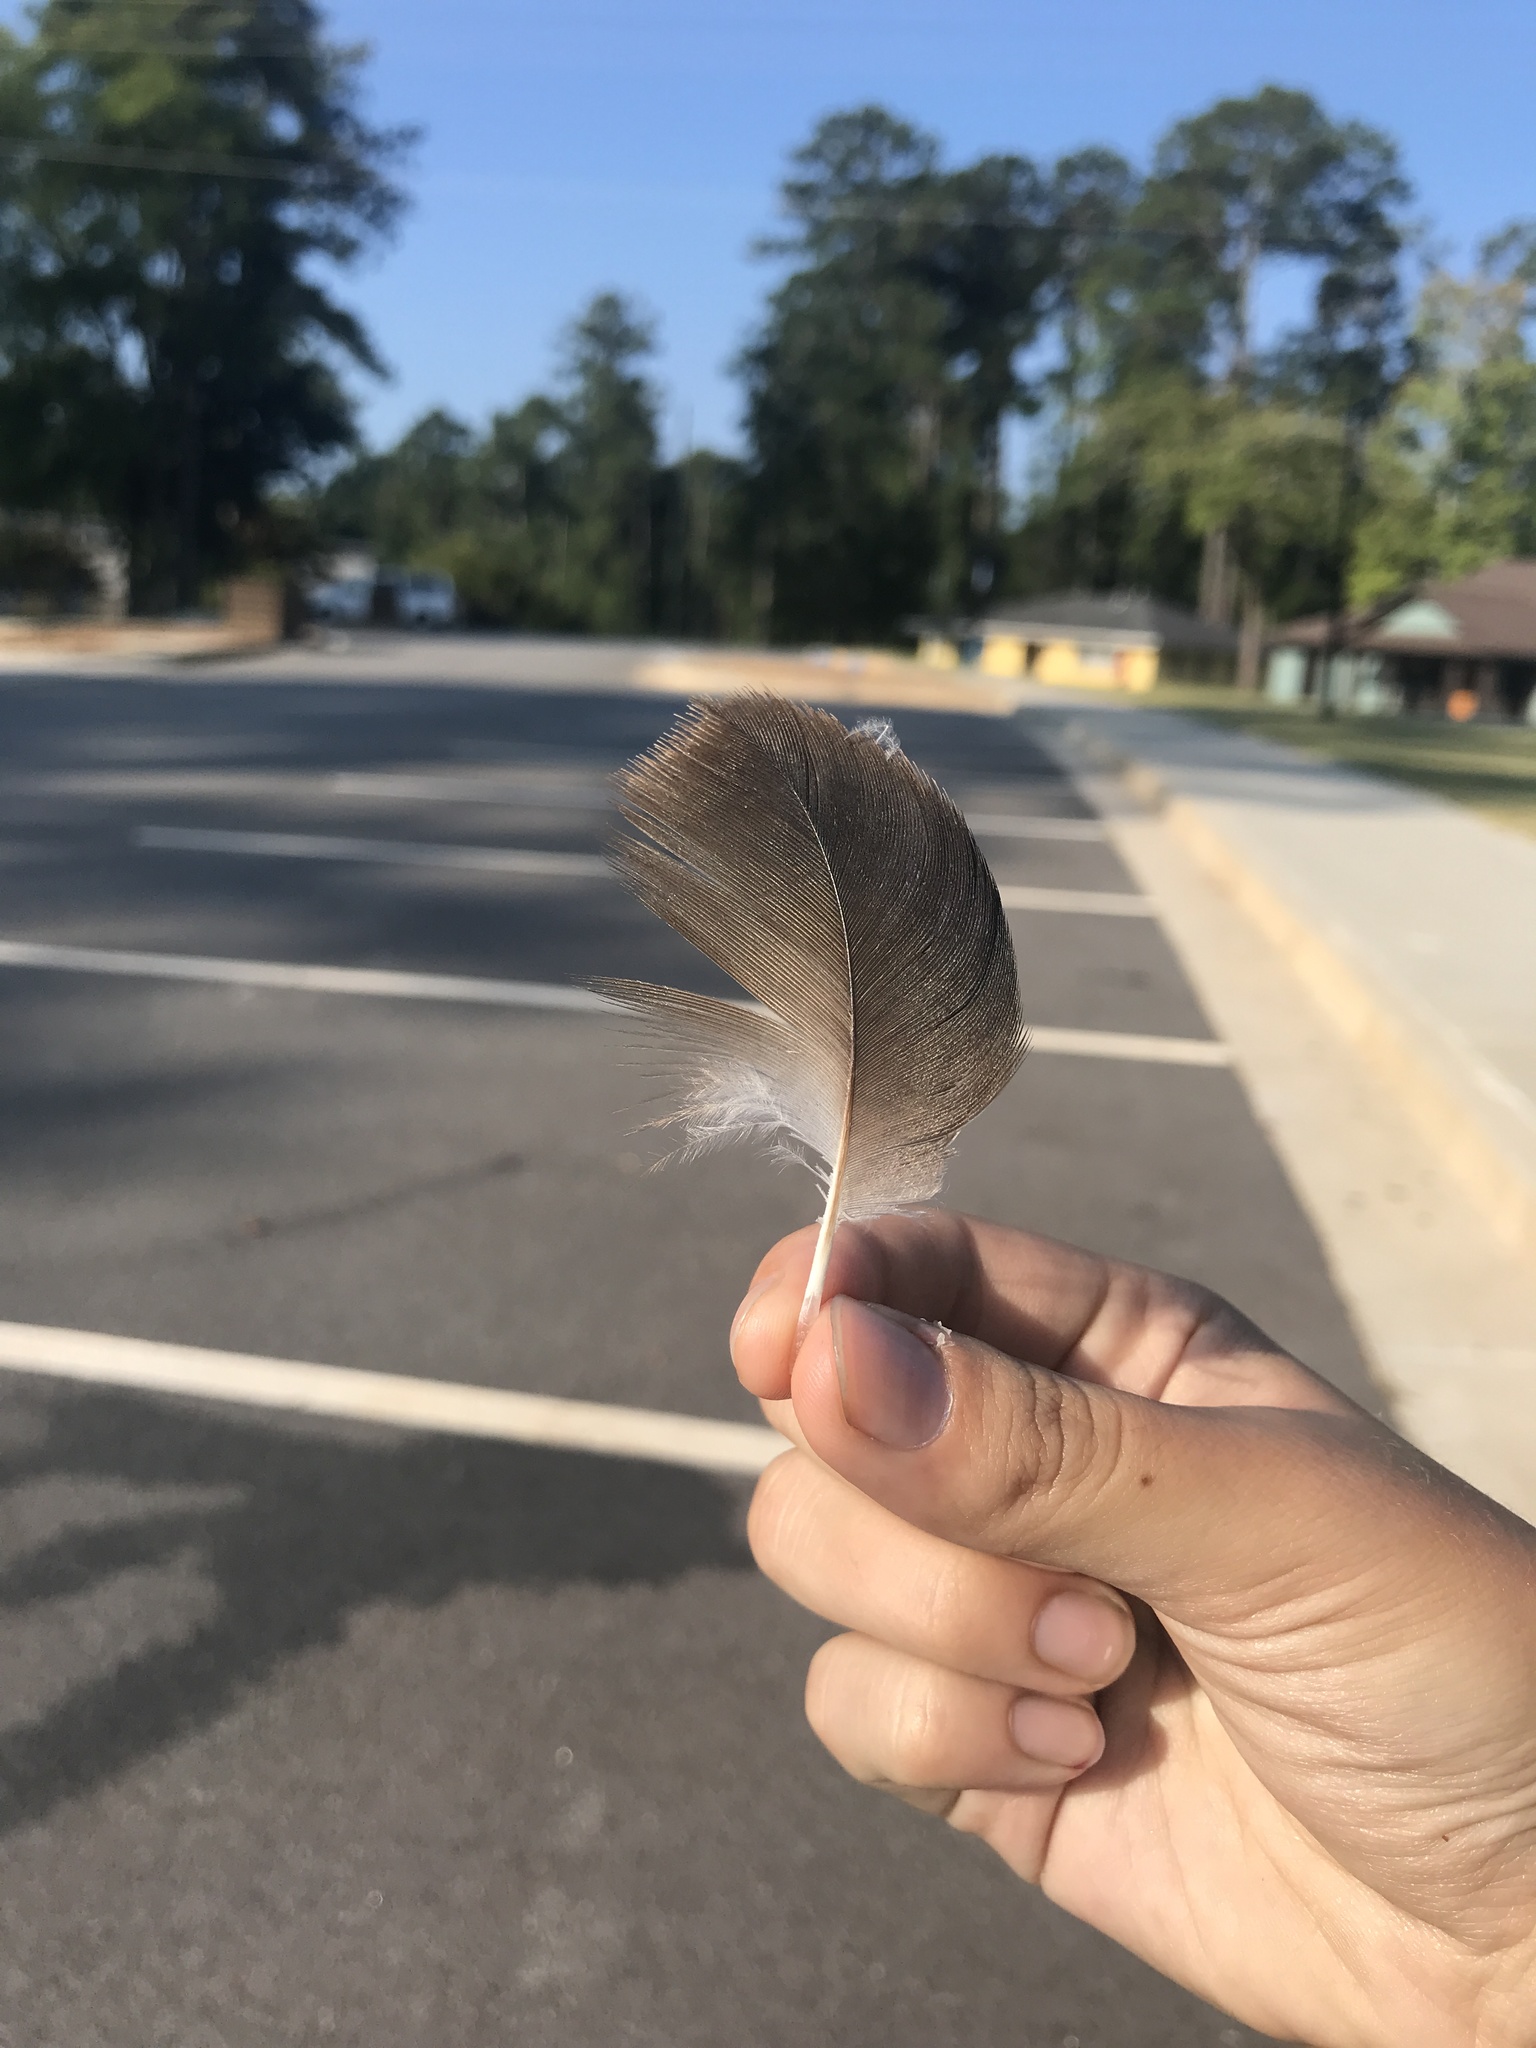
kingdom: Animalia
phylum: Chordata
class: Aves
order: Accipitriformes
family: Cathartidae
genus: Cathartes
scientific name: Cathartes aura
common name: Turkey vulture
